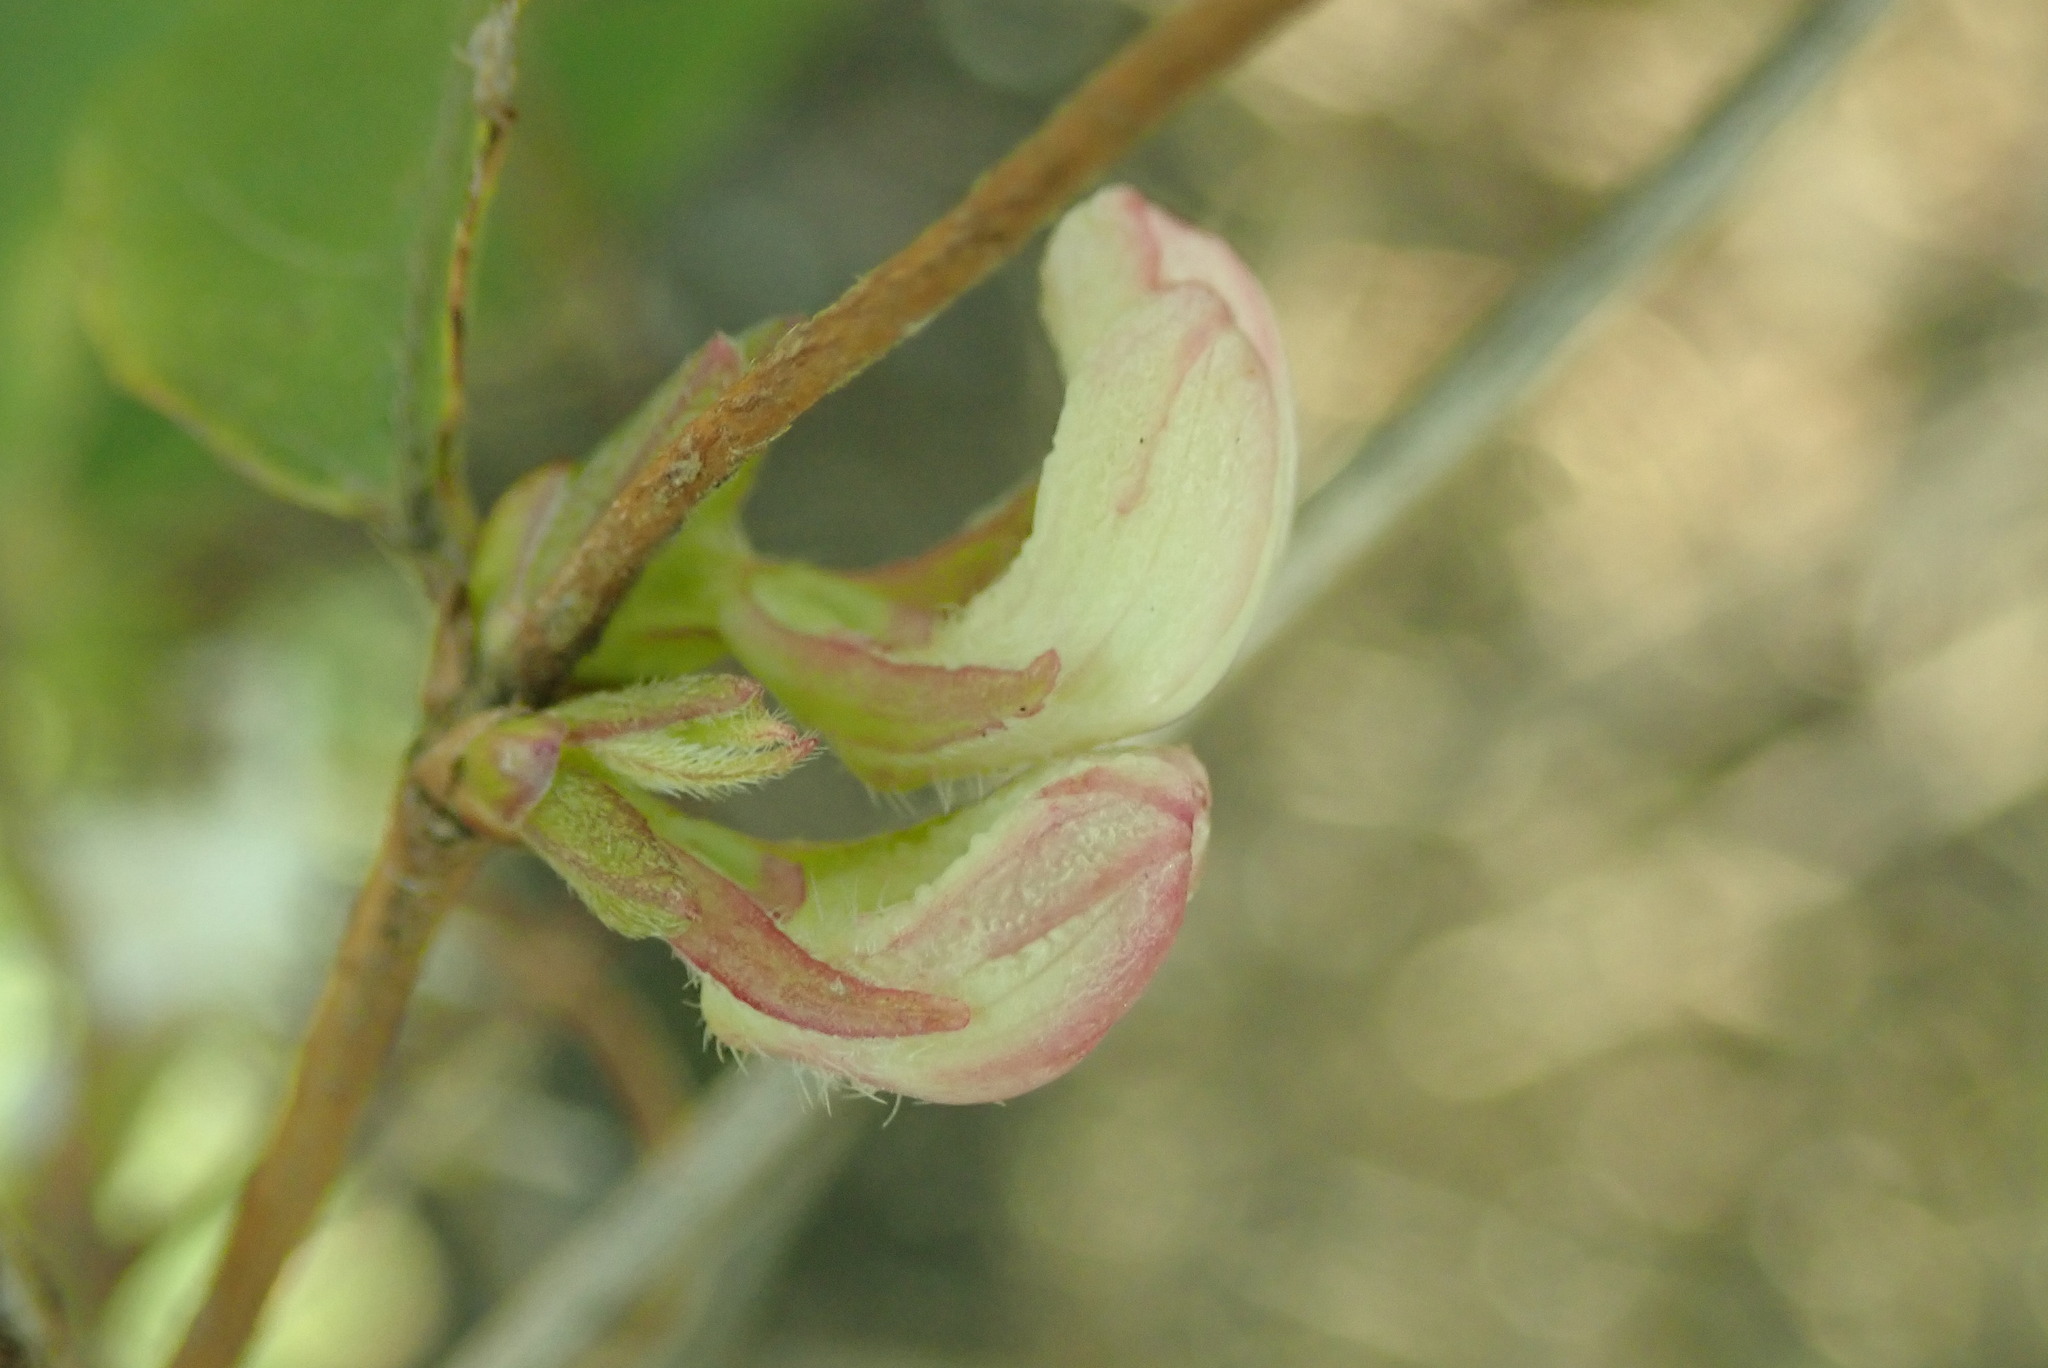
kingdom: Plantae
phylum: Tracheophyta
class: Magnoliopsida
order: Dipsacales
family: Caprifoliaceae
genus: Lonicera
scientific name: Lonicera fragrantissima
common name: Fragrant honeysuckle
